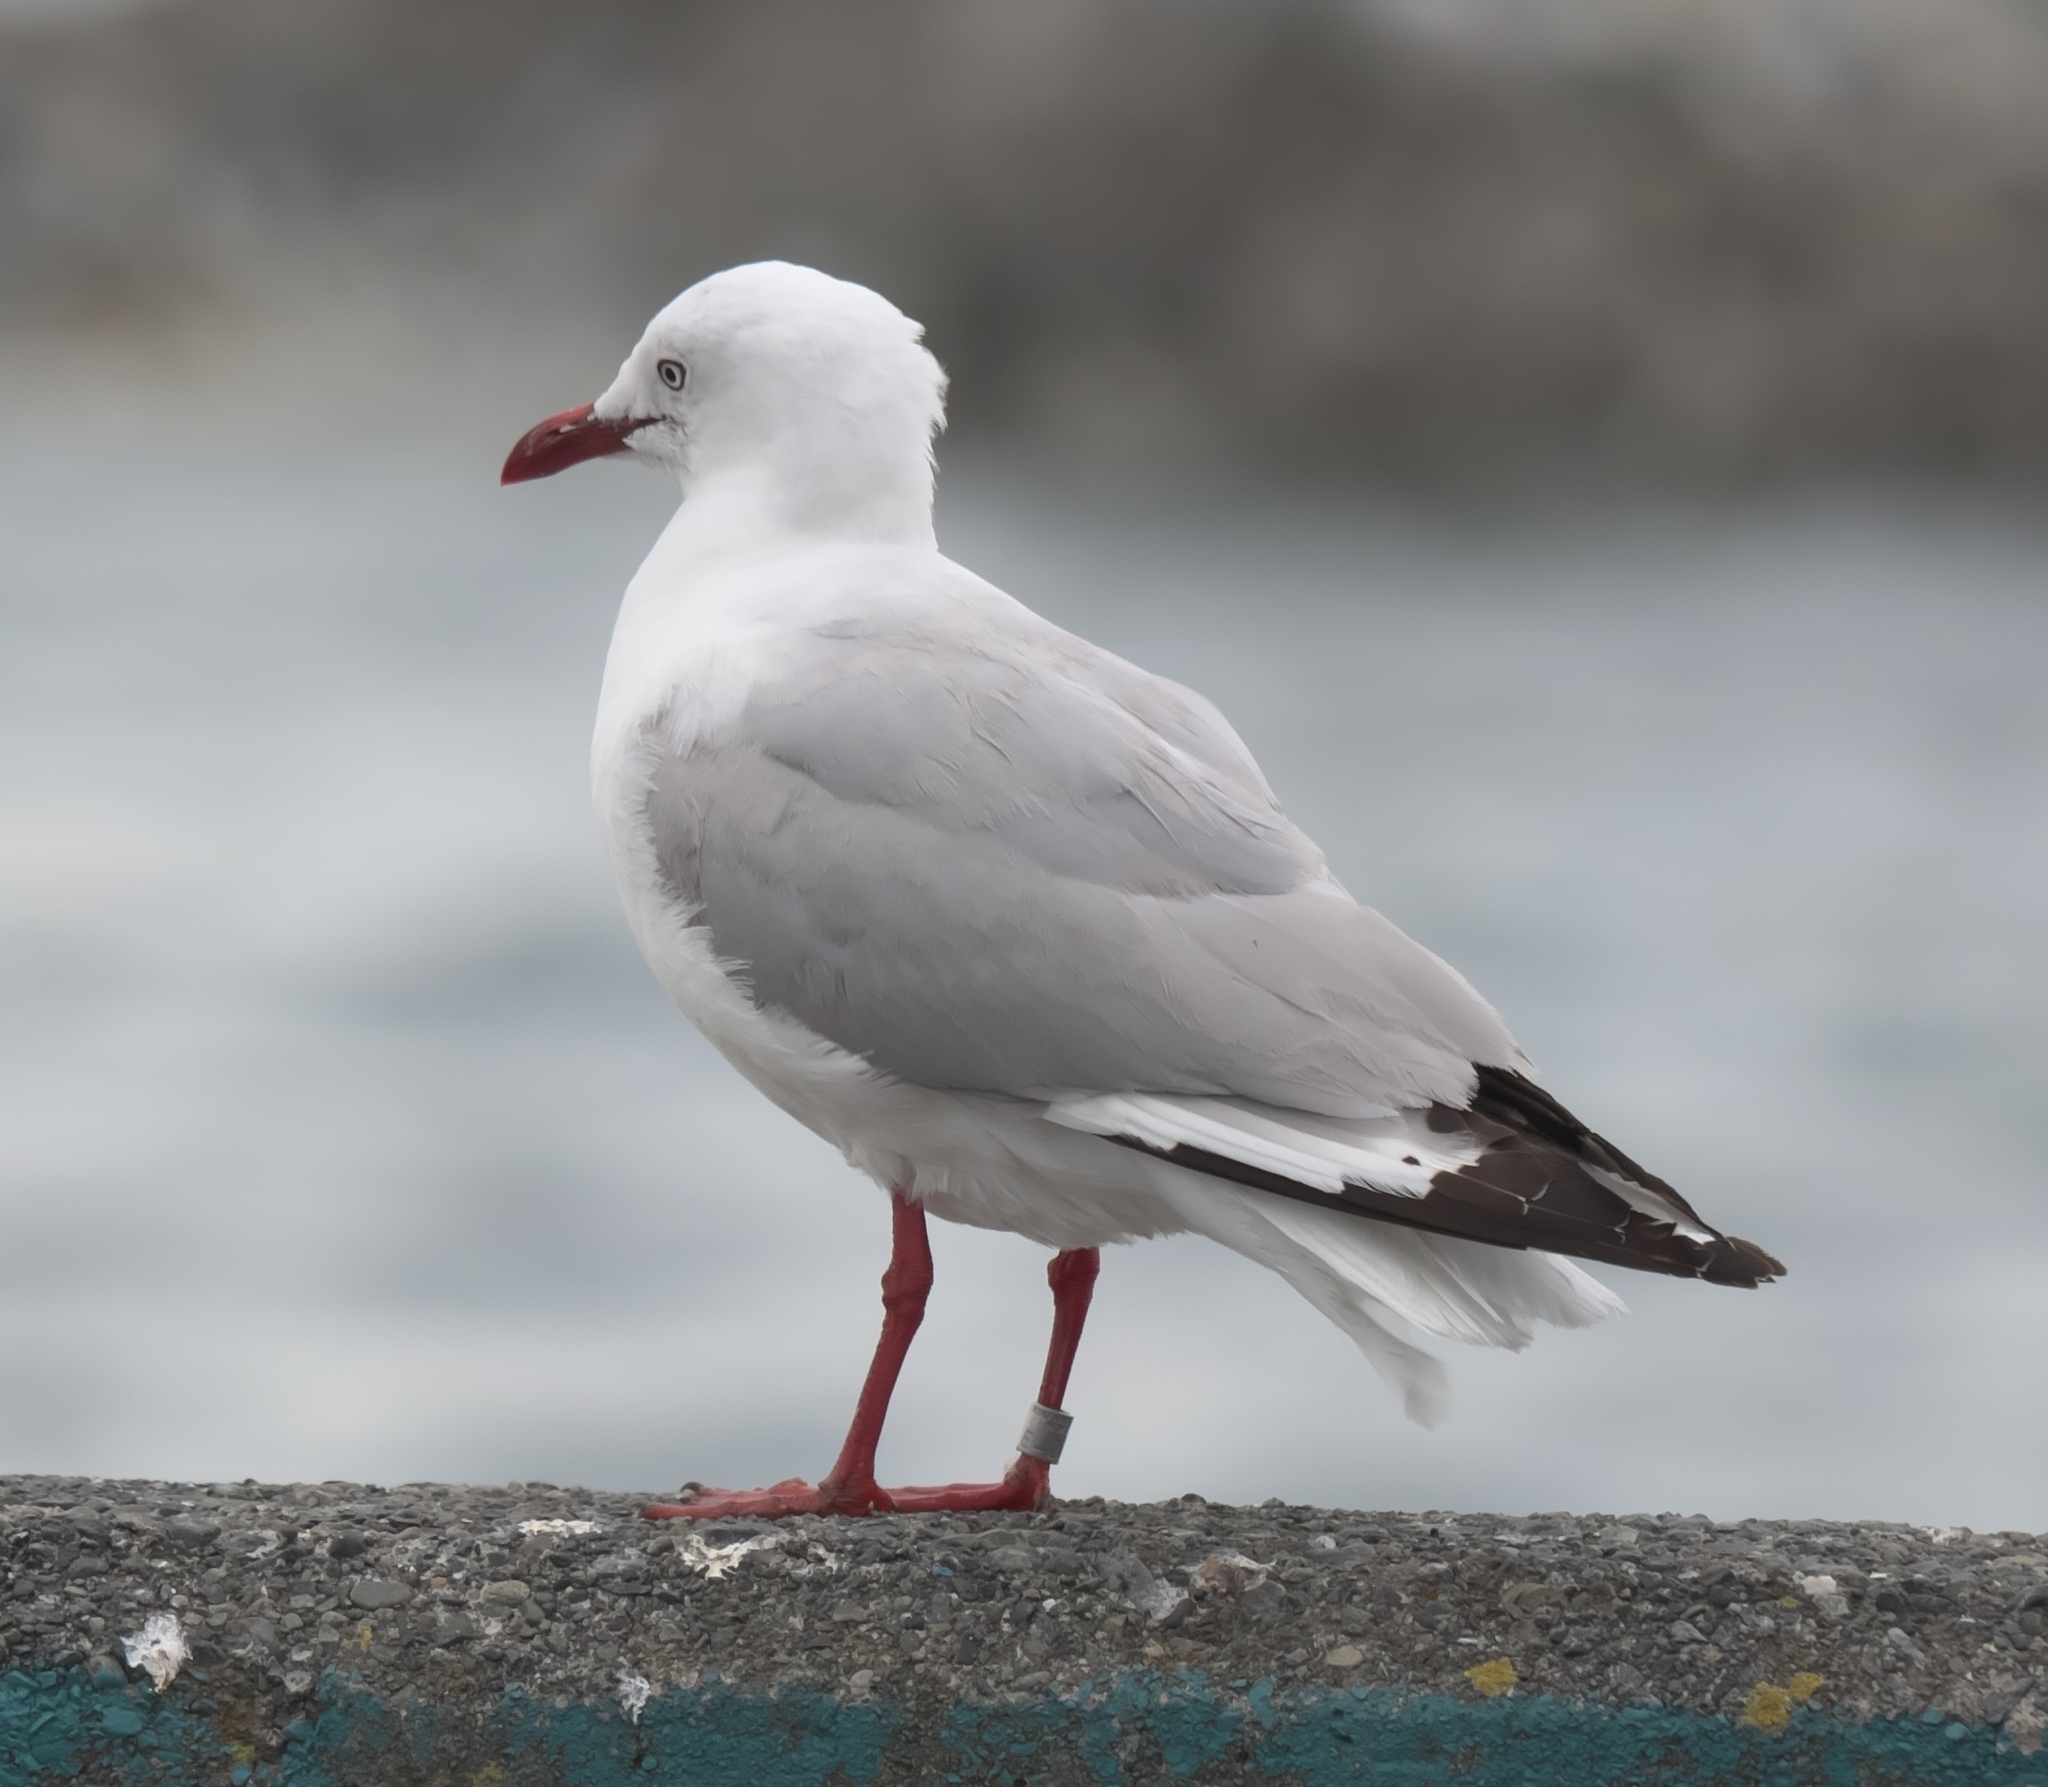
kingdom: Animalia
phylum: Chordata
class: Aves
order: Charadriiformes
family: Laridae
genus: Chroicocephalus
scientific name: Chroicocephalus novaehollandiae
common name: Silver gull
